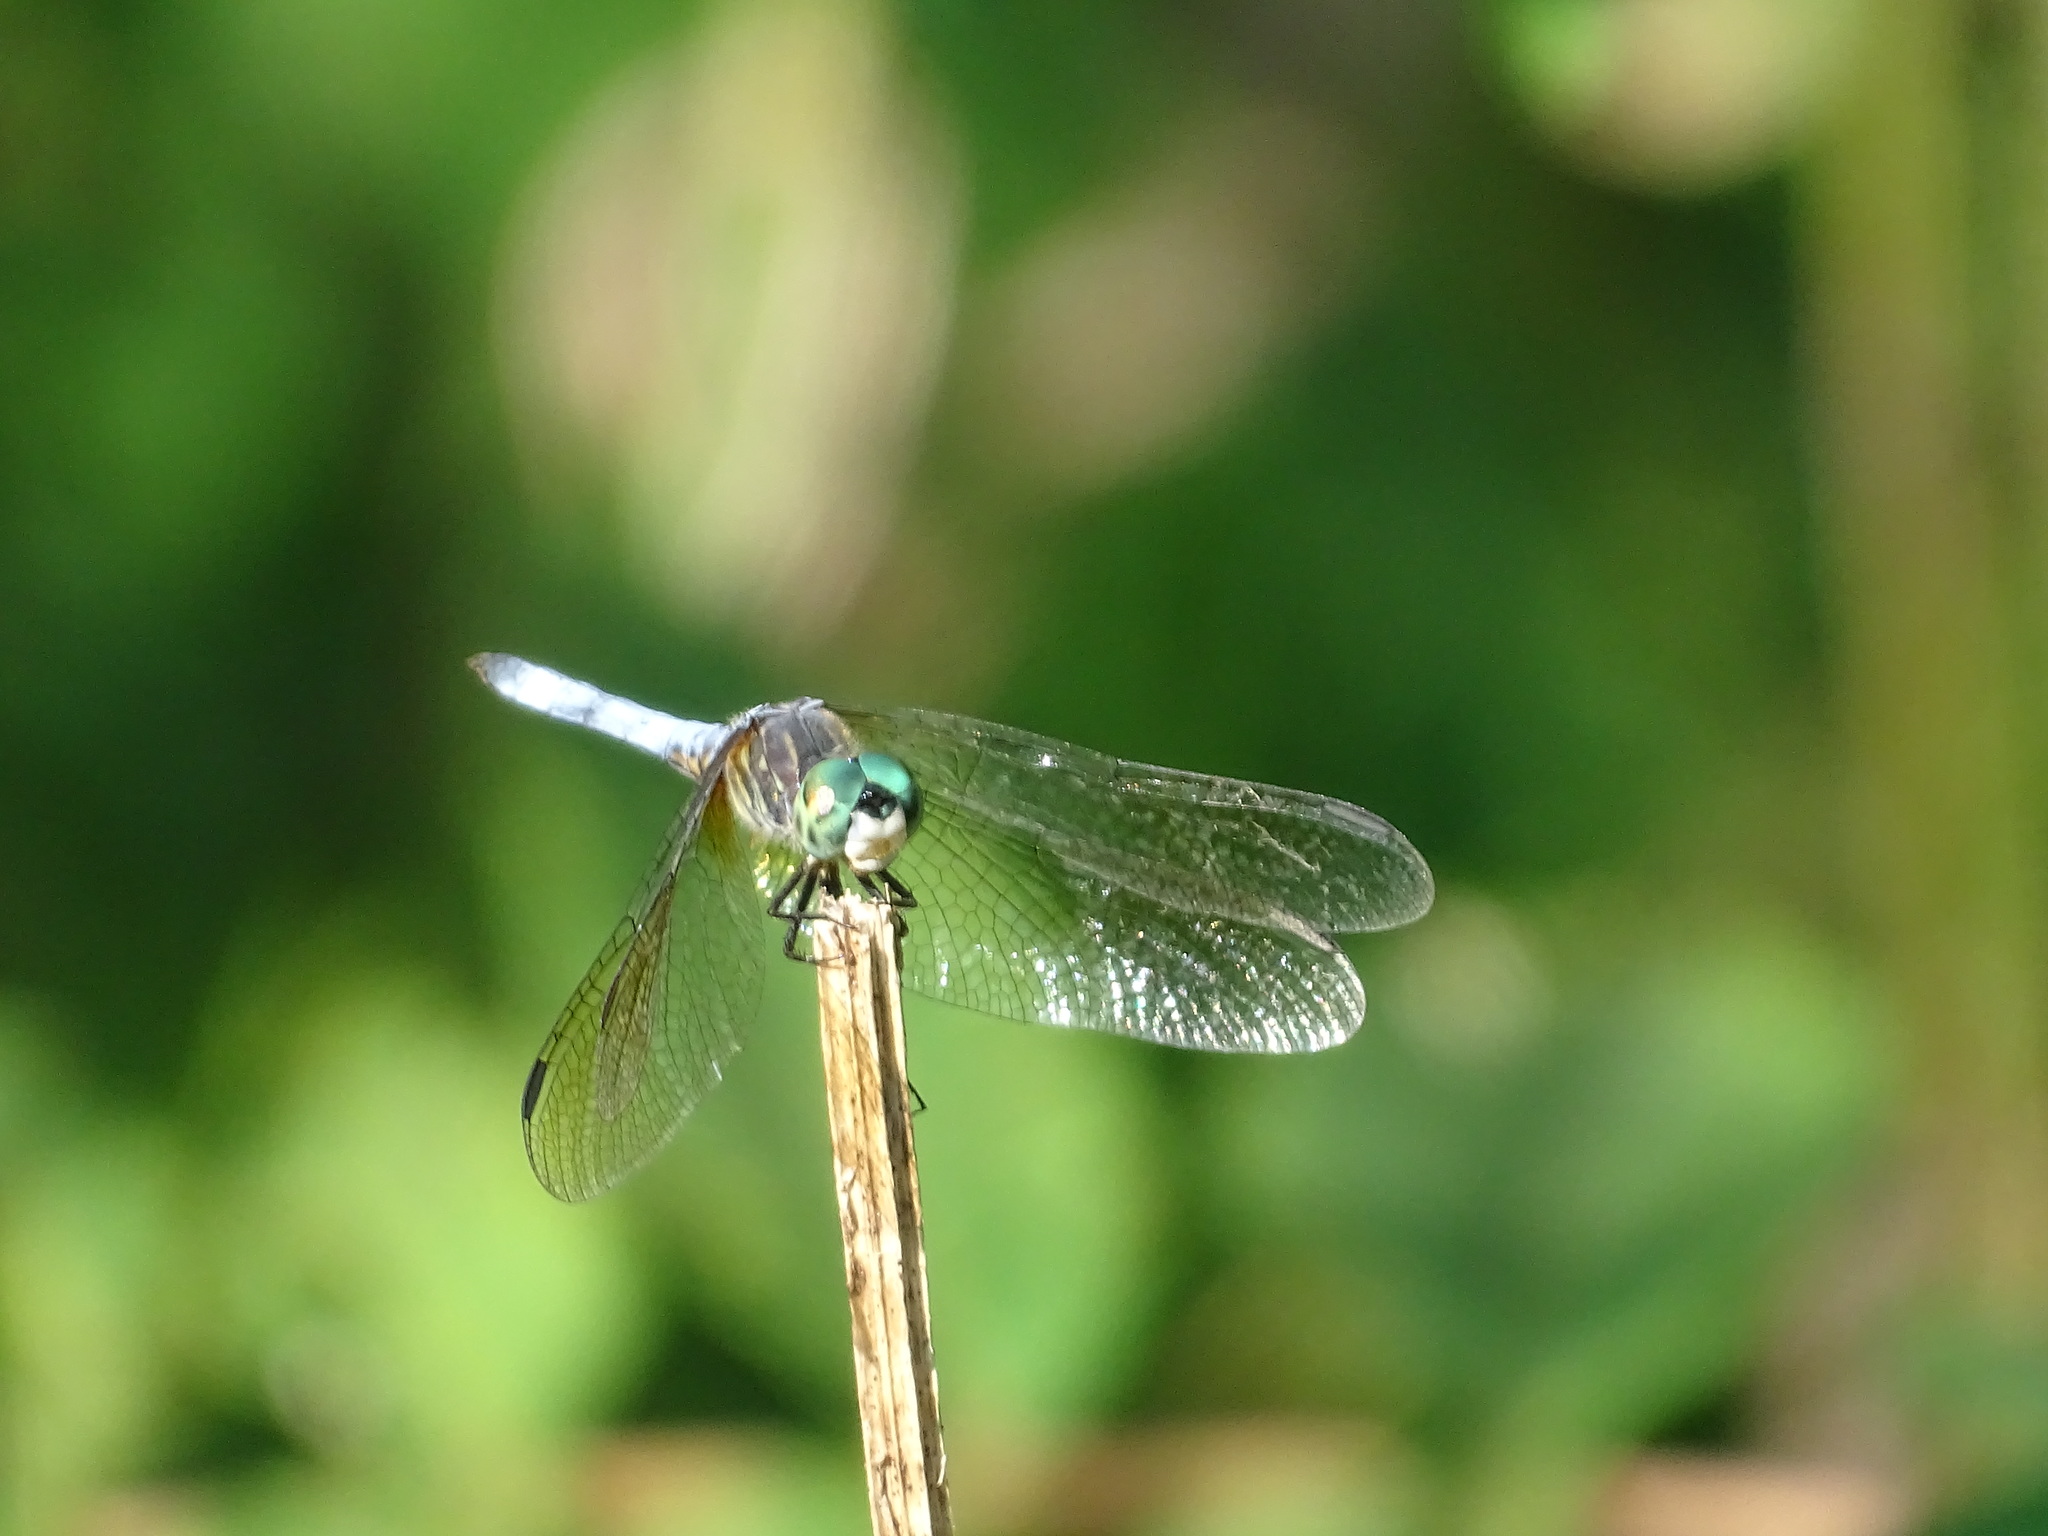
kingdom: Animalia
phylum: Arthropoda
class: Insecta
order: Odonata
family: Libellulidae
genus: Pachydiplax
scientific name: Pachydiplax longipennis
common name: Blue dasher
